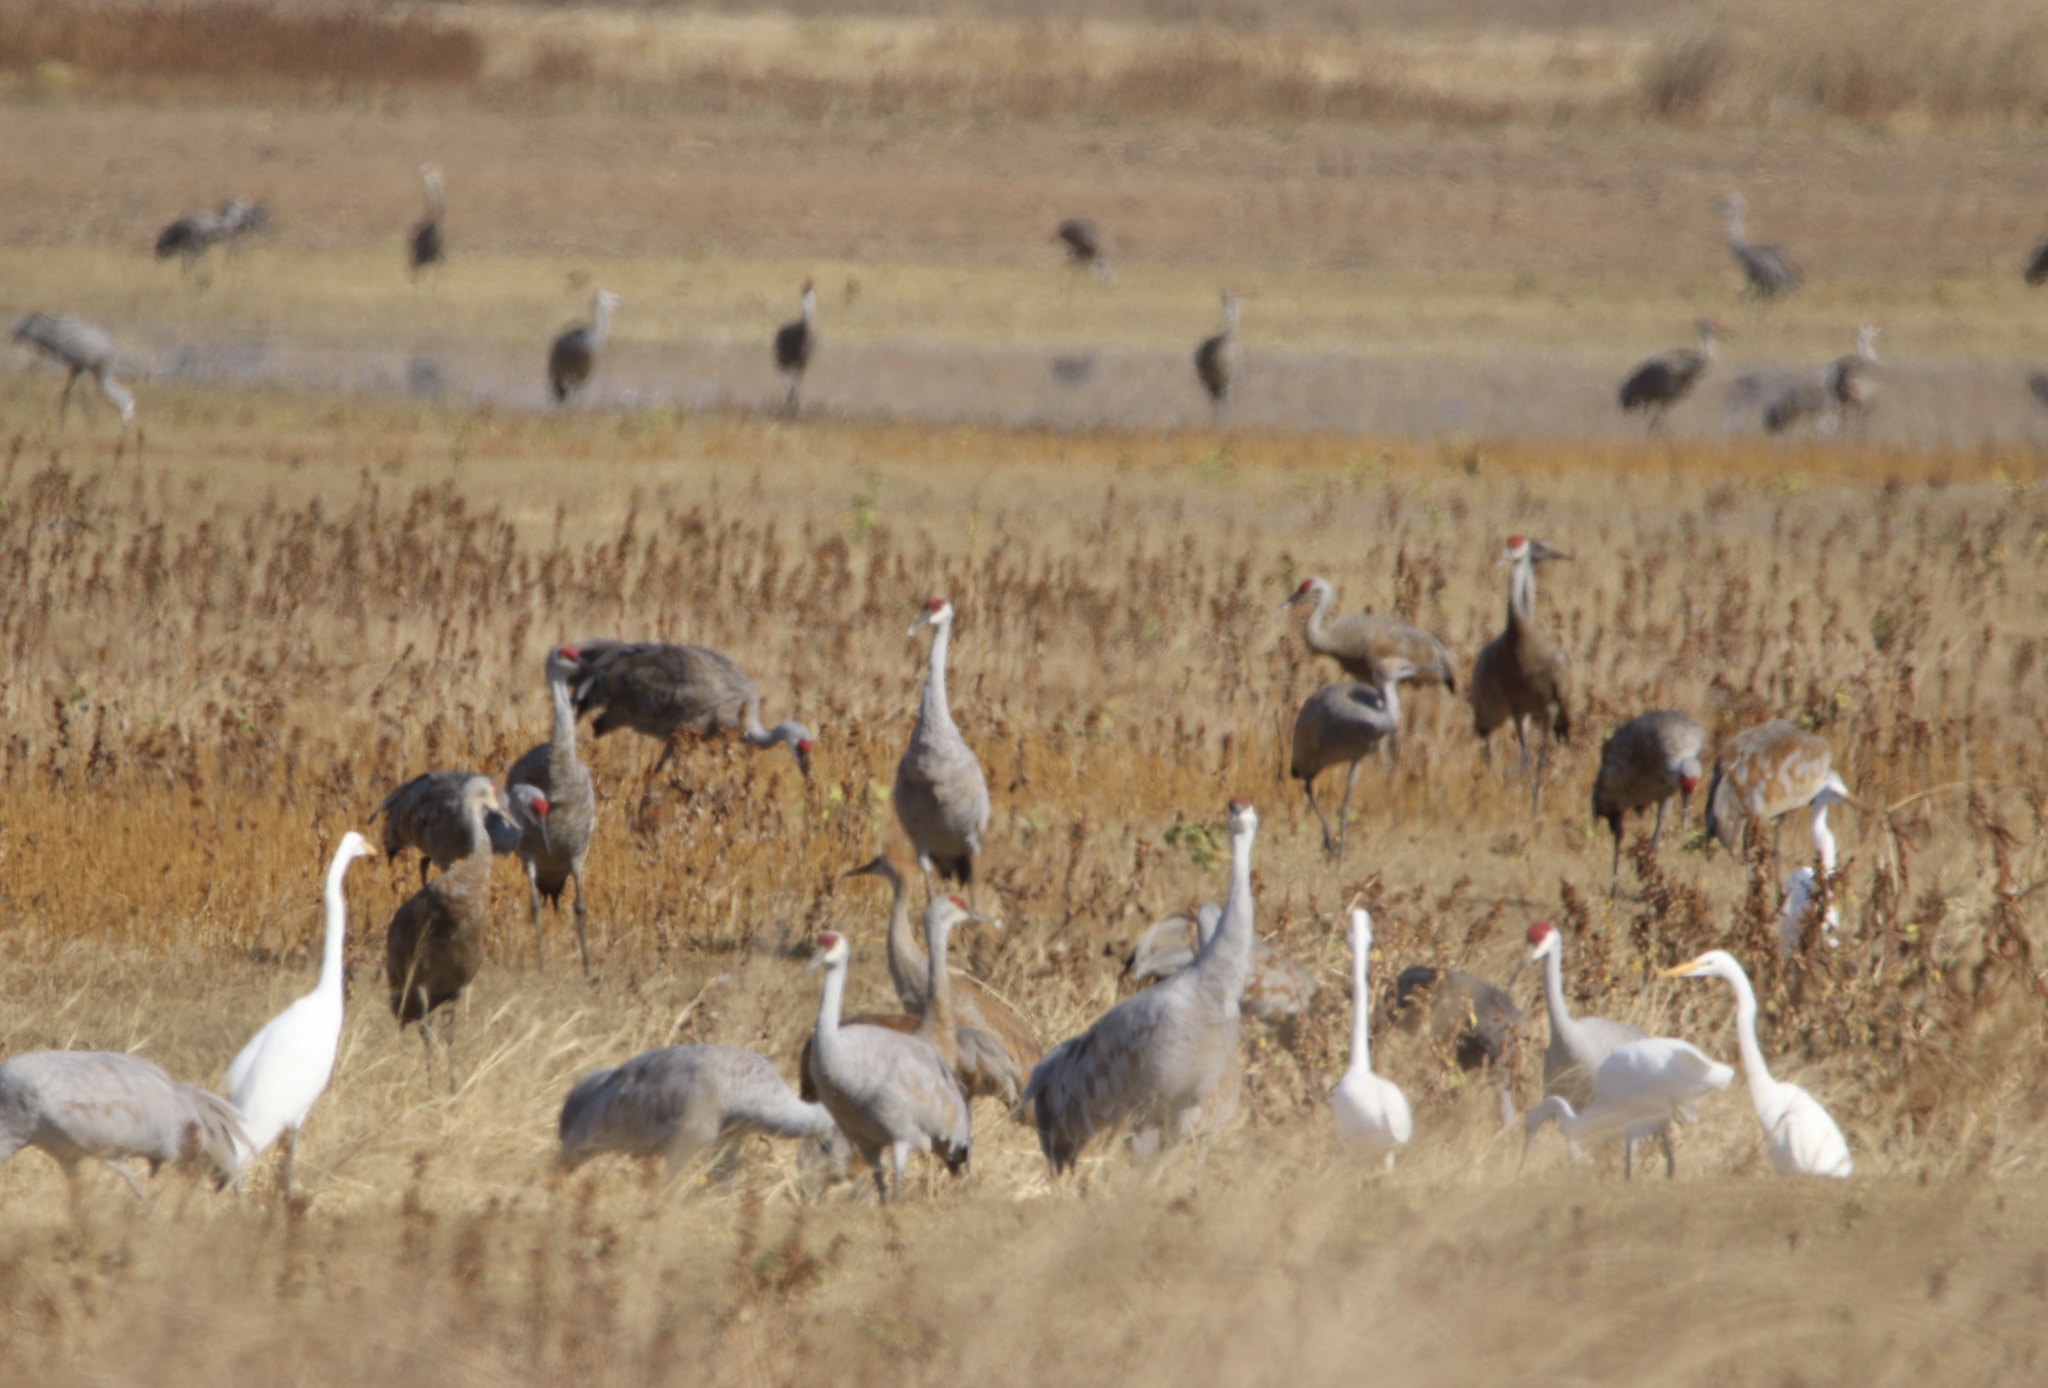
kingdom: Animalia
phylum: Chordata
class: Aves
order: Gruiformes
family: Gruidae
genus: Grus
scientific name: Grus canadensis
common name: Sandhill crane
